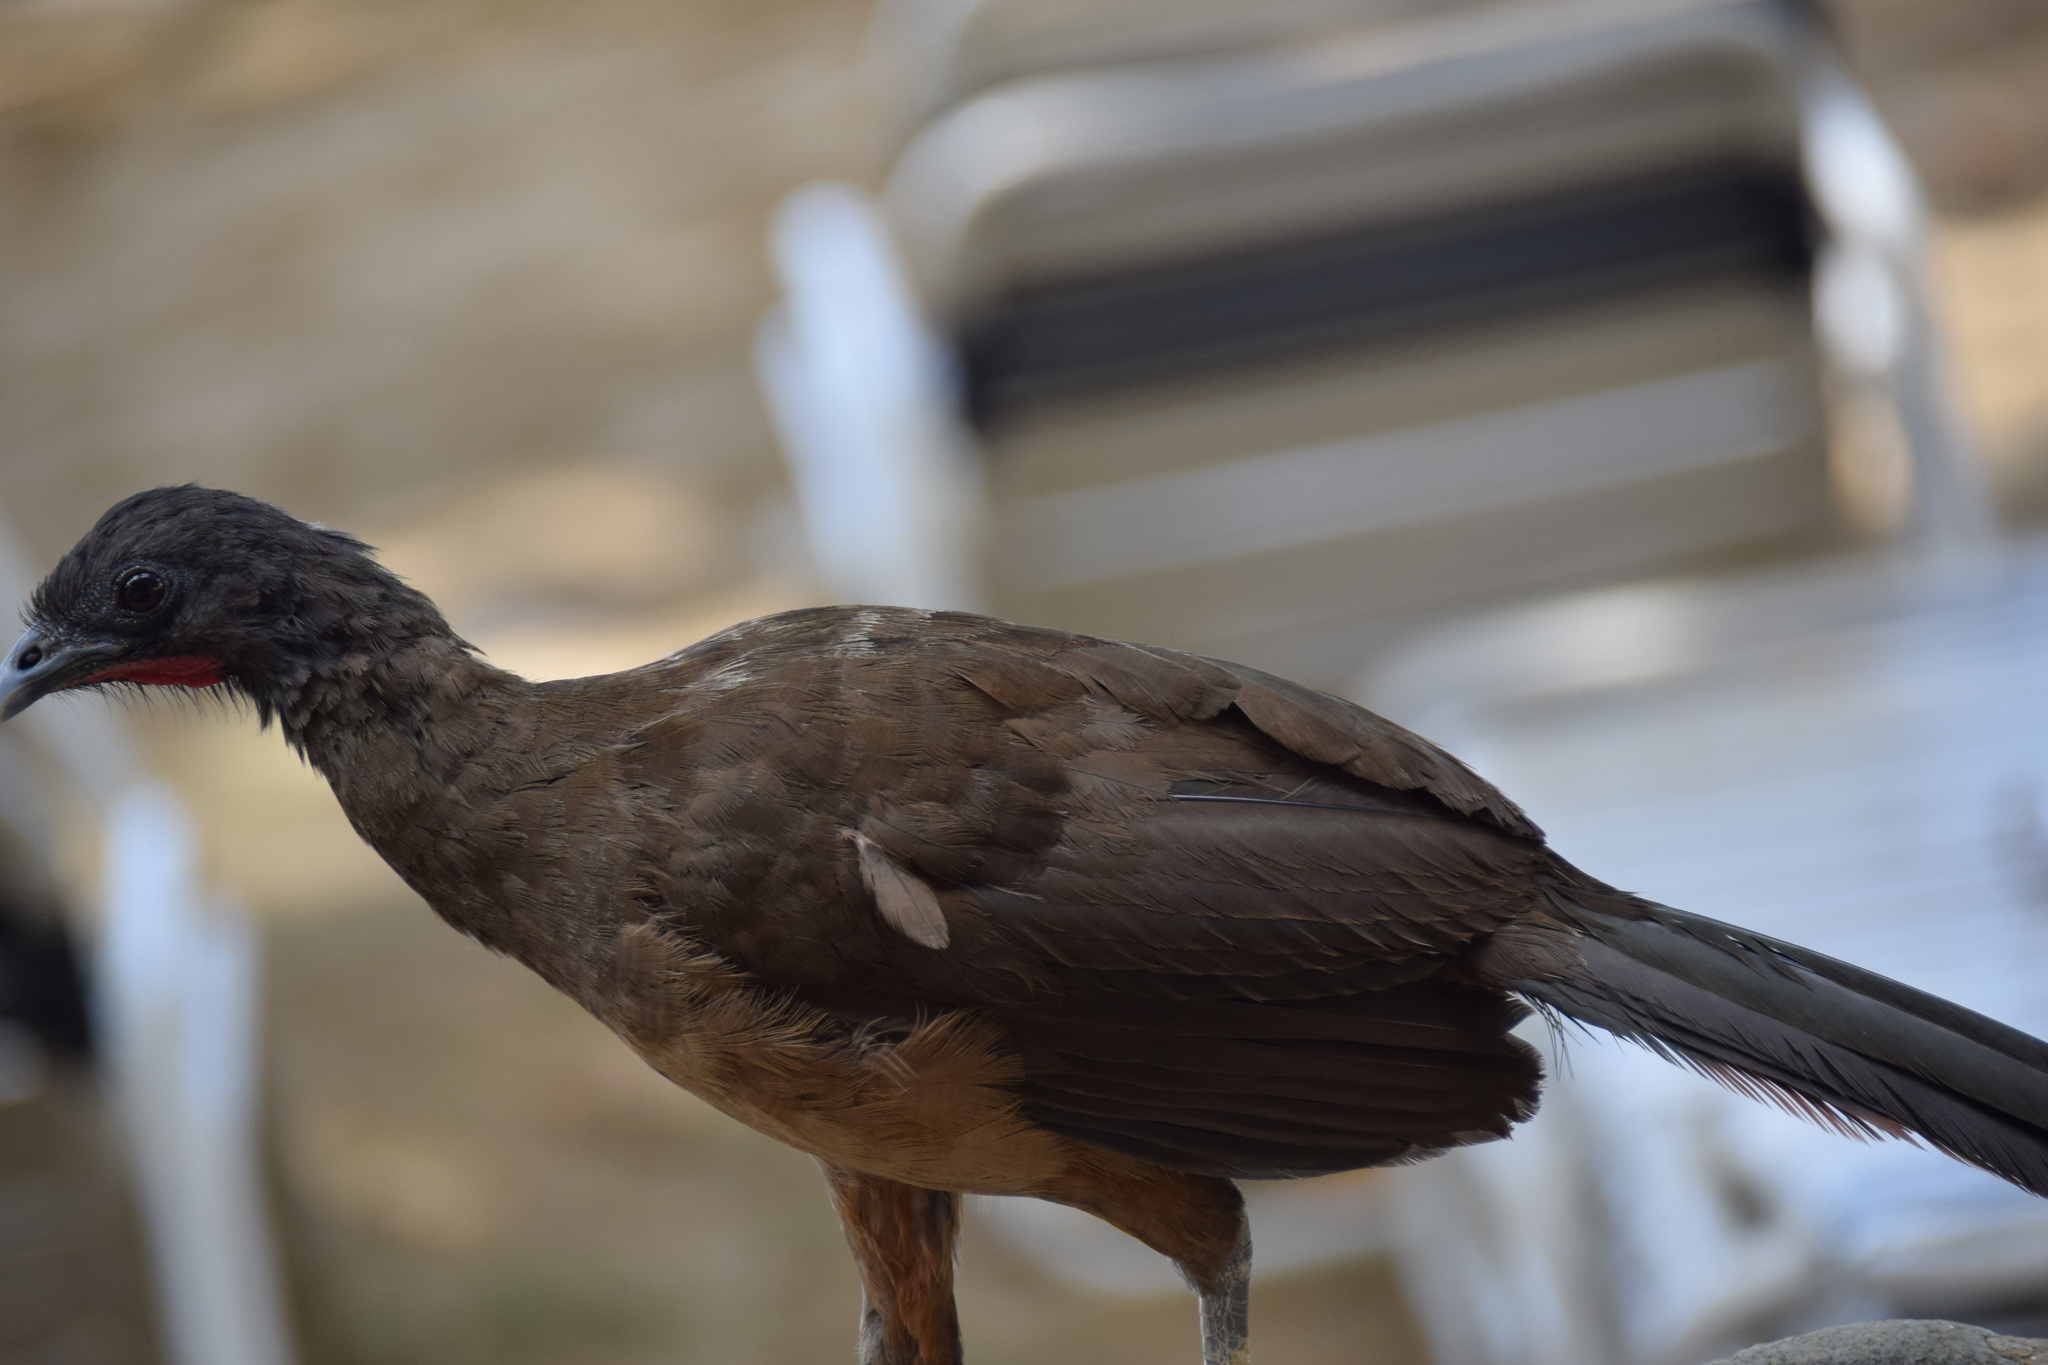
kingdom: Animalia
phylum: Chordata
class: Aves
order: Galliformes
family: Cracidae
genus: Ortalis
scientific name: Ortalis ruficauda
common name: Rufous-vented chachalaca
